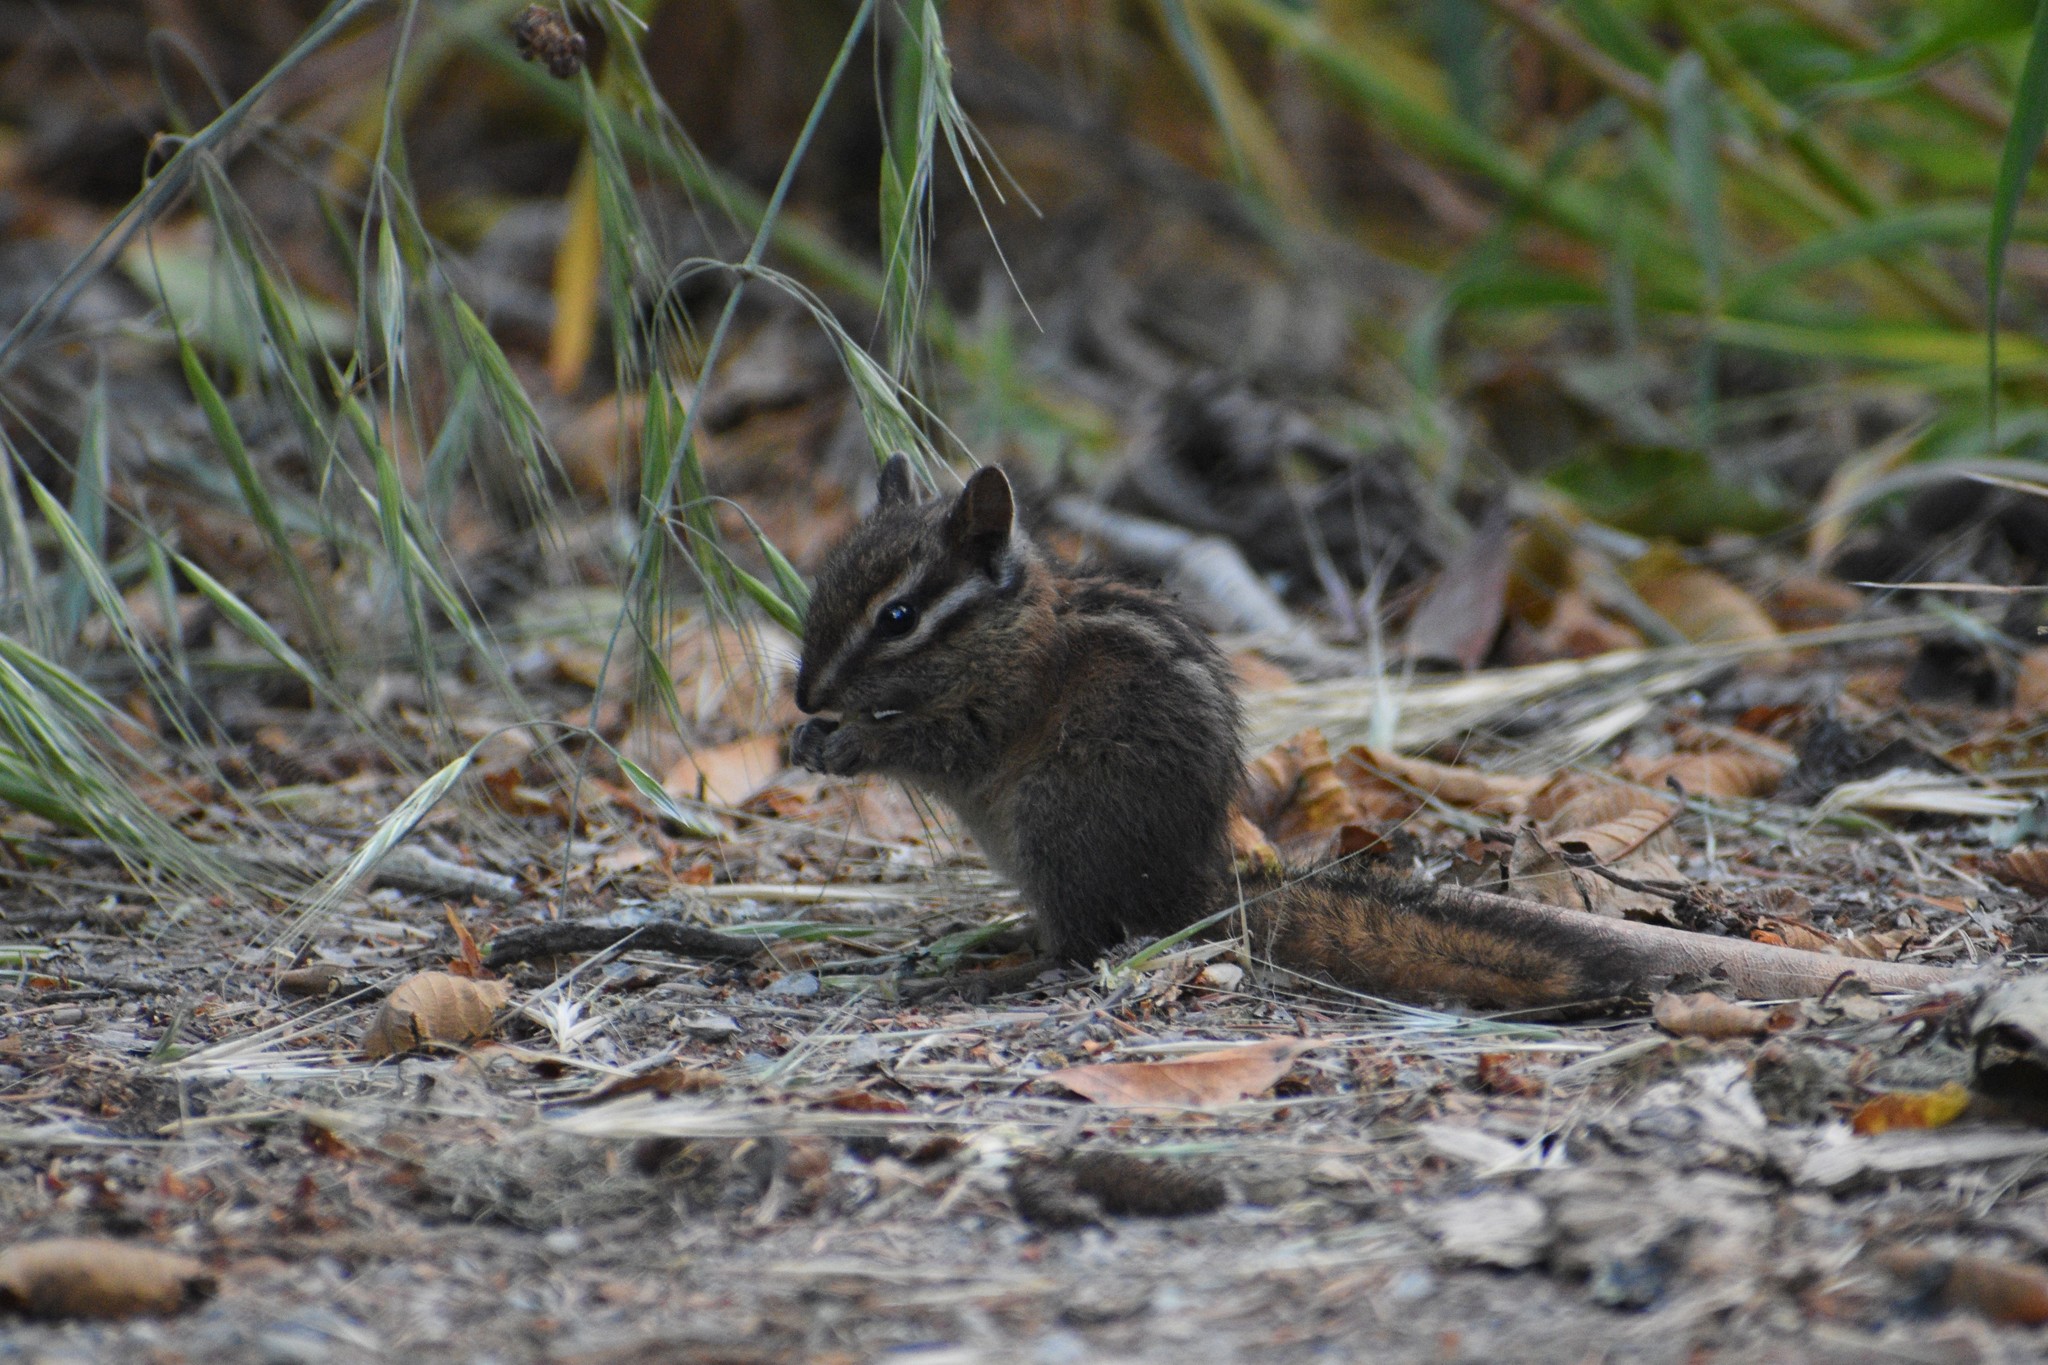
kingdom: Animalia
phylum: Chordata
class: Mammalia
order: Rodentia
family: Sciuridae
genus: Tamias
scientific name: Tamias sonomae
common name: Sonoma chipmunk
